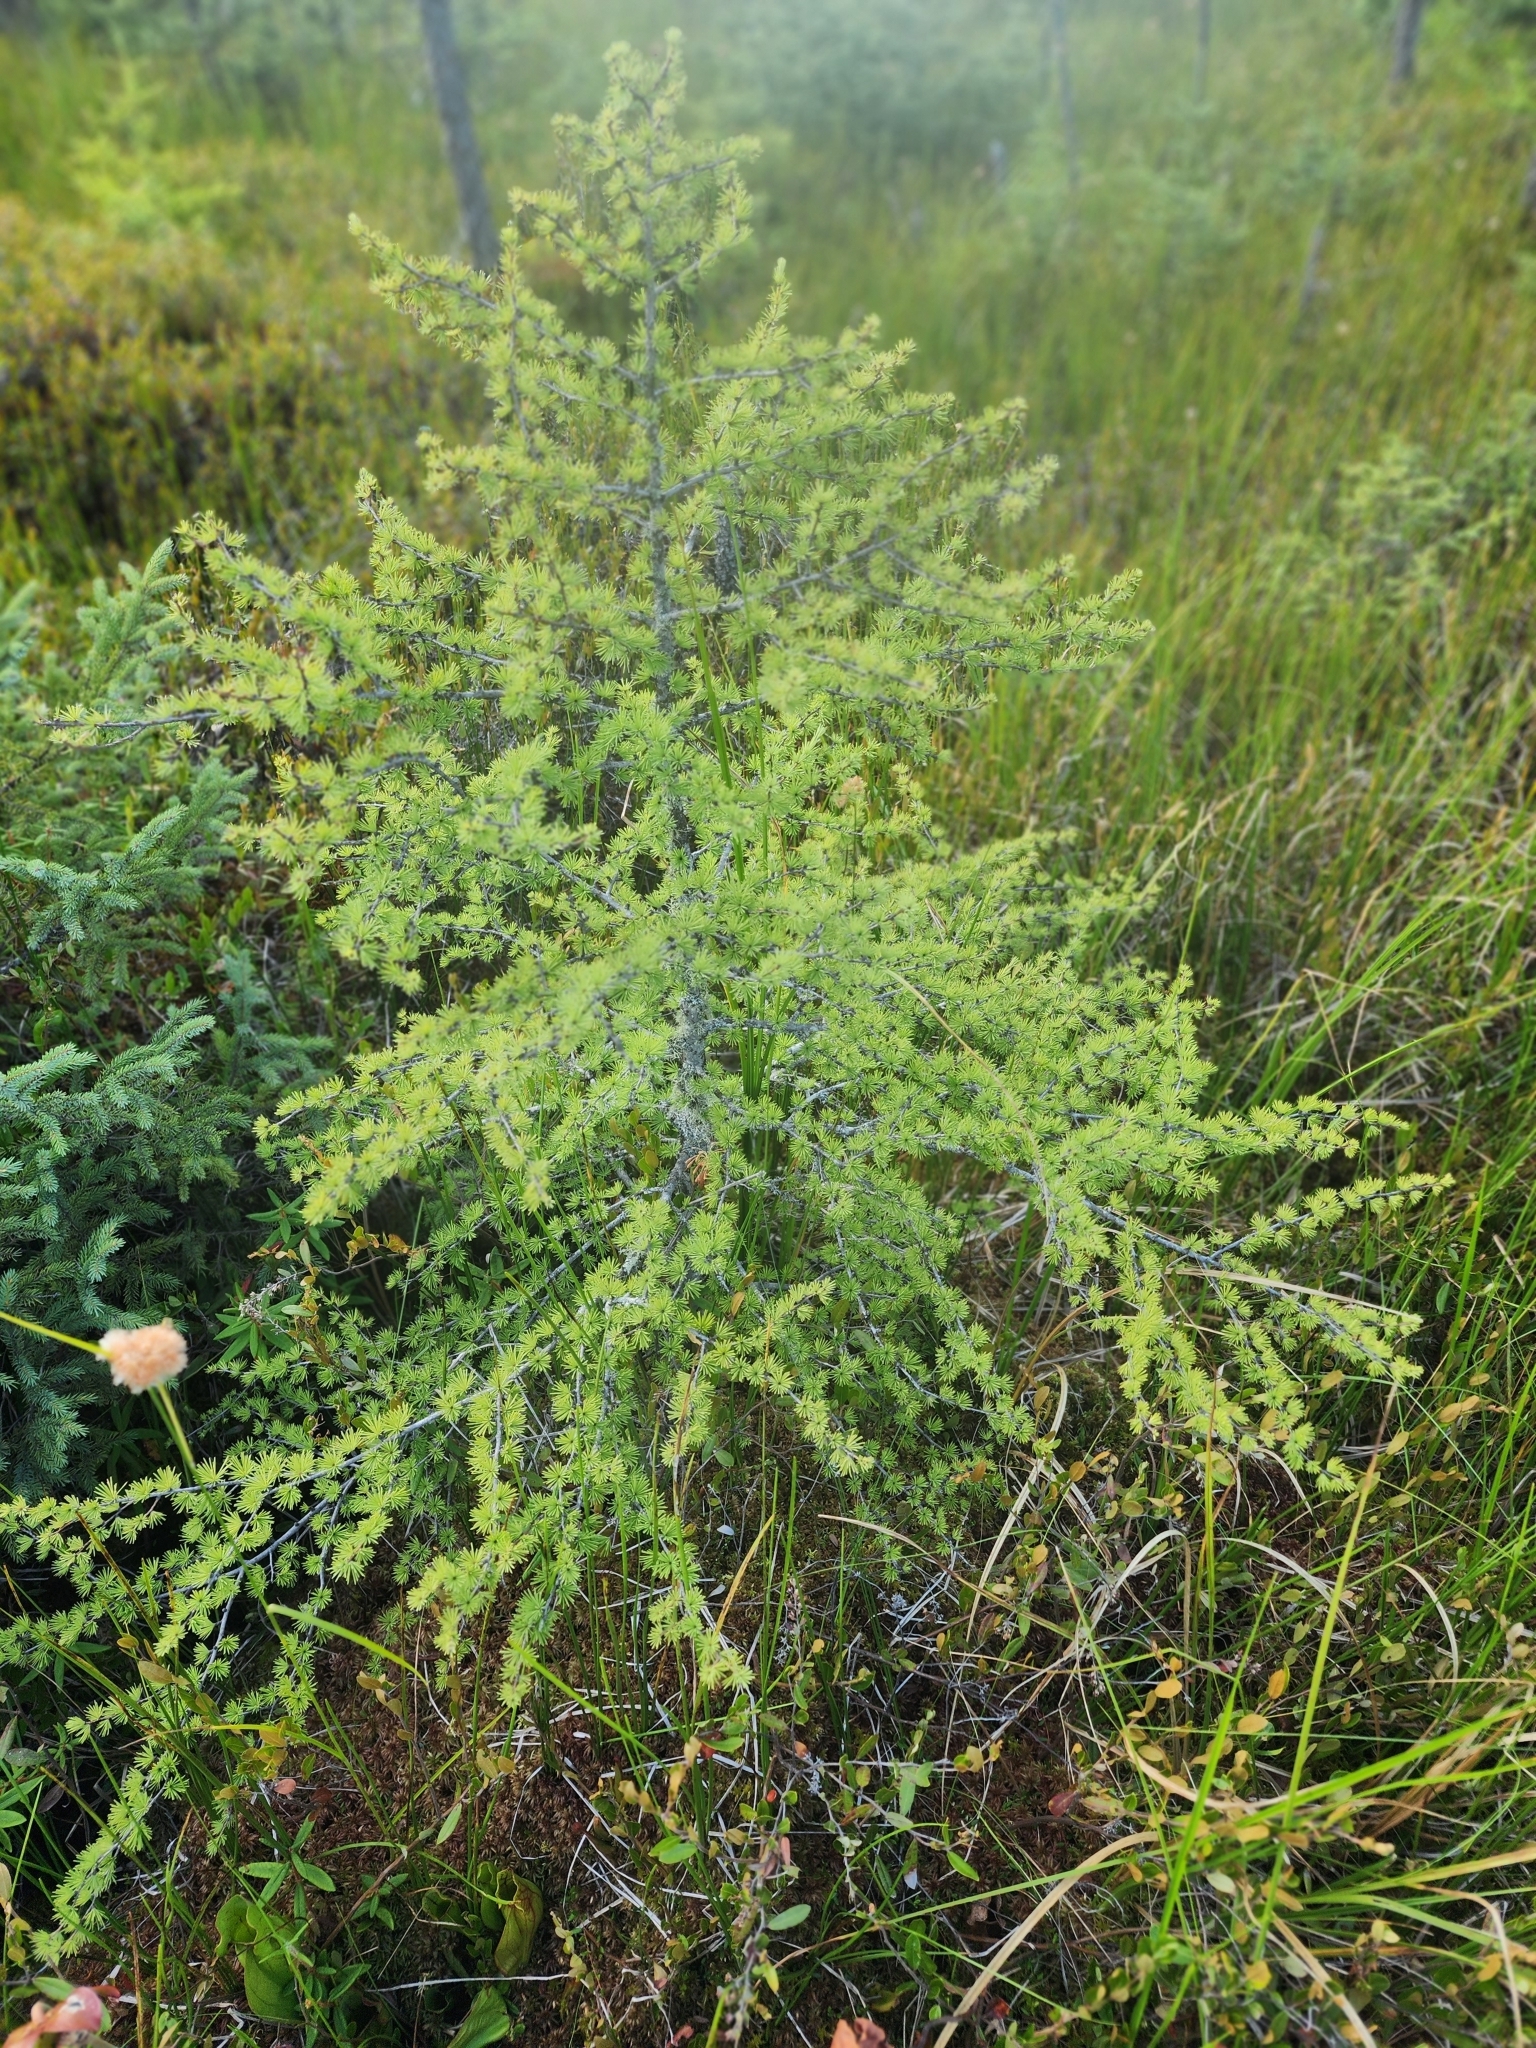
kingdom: Plantae
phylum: Tracheophyta
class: Pinopsida
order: Pinales
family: Pinaceae
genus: Larix
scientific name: Larix laricina
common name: American larch
